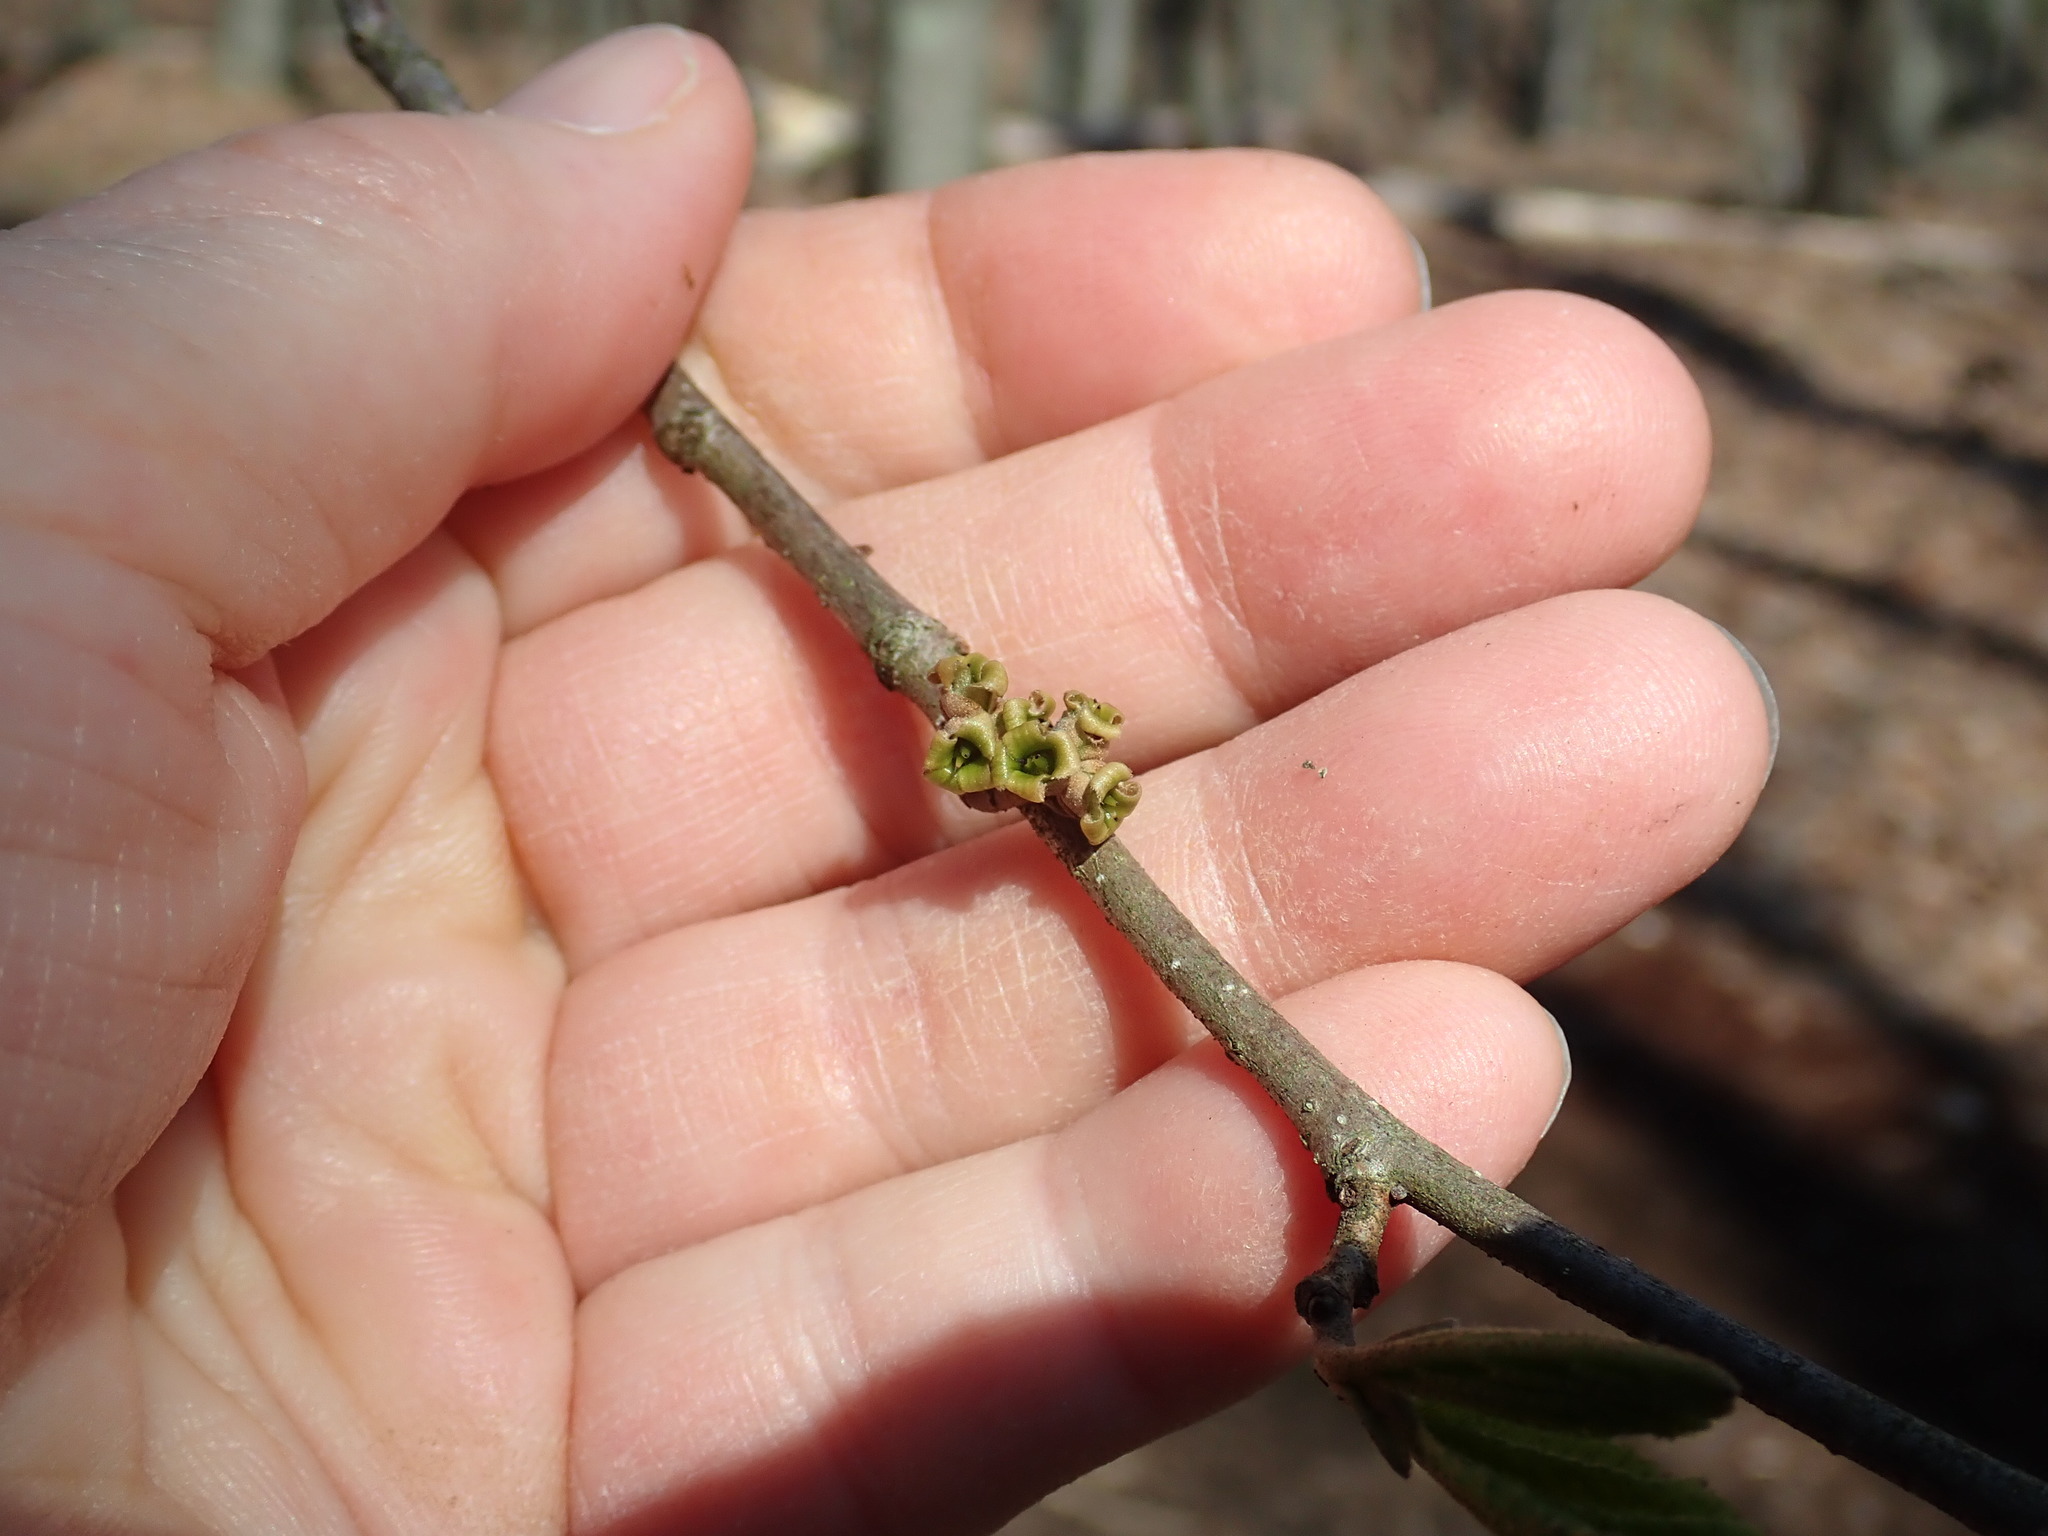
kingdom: Plantae
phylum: Tracheophyta
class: Magnoliopsida
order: Saxifragales
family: Hamamelidaceae
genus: Hamamelis
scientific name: Hamamelis virginiana
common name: Witch-hazel
